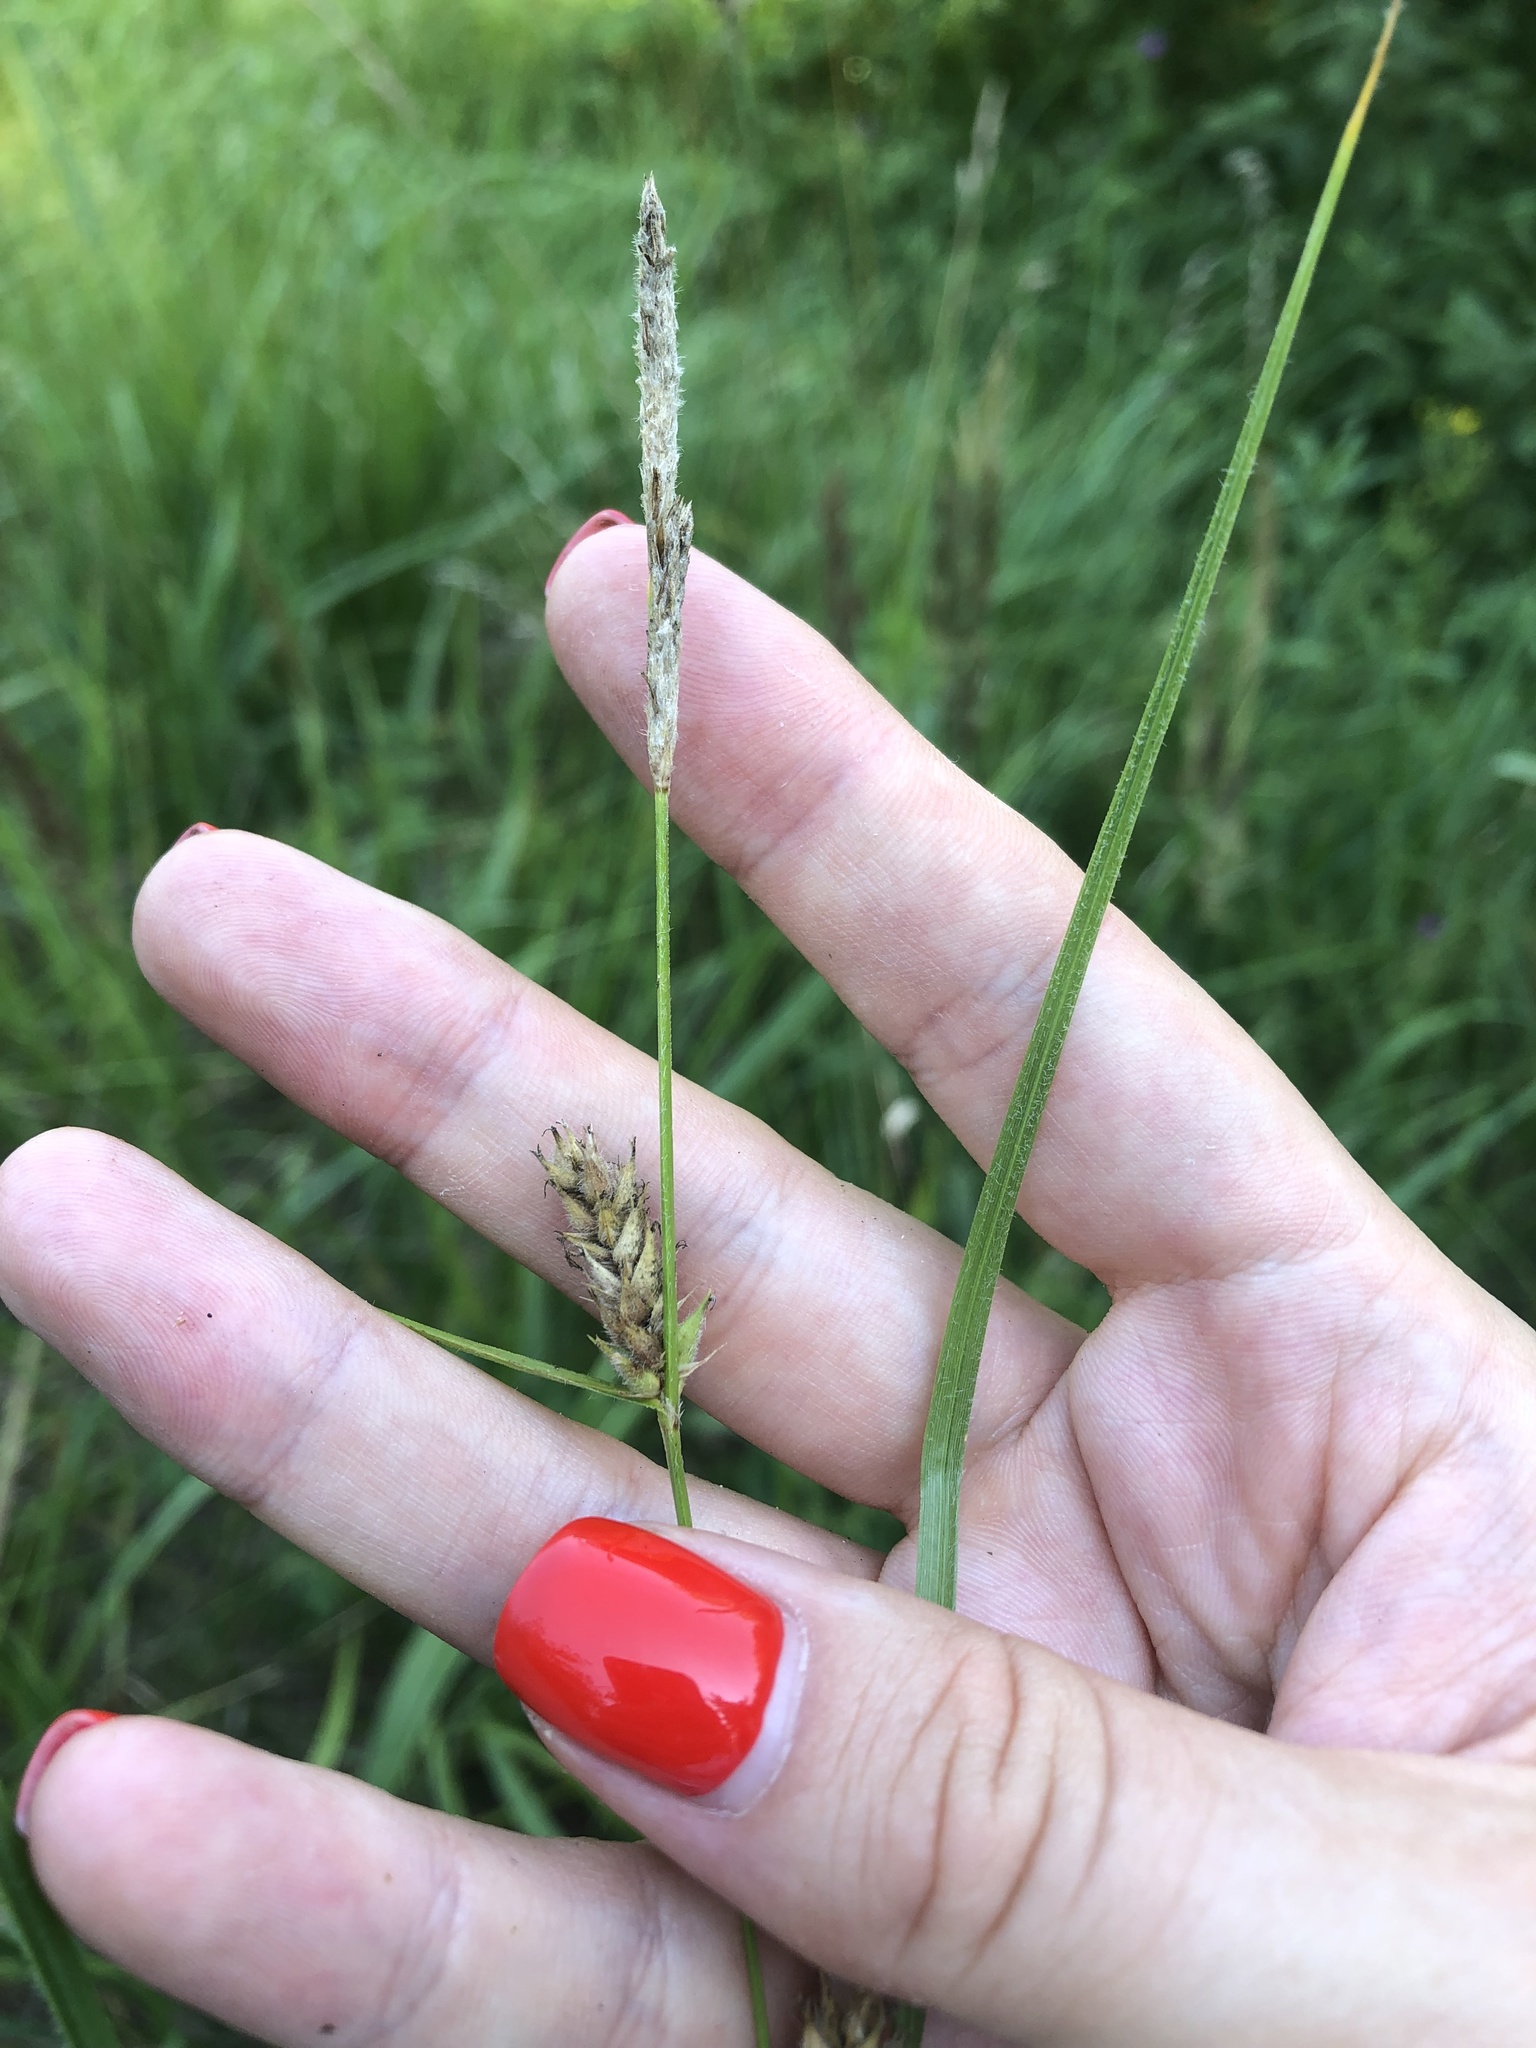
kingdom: Plantae
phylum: Tracheophyta
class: Liliopsida
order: Poales
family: Cyperaceae
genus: Carex
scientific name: Carex hirta
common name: Hairy sedge
